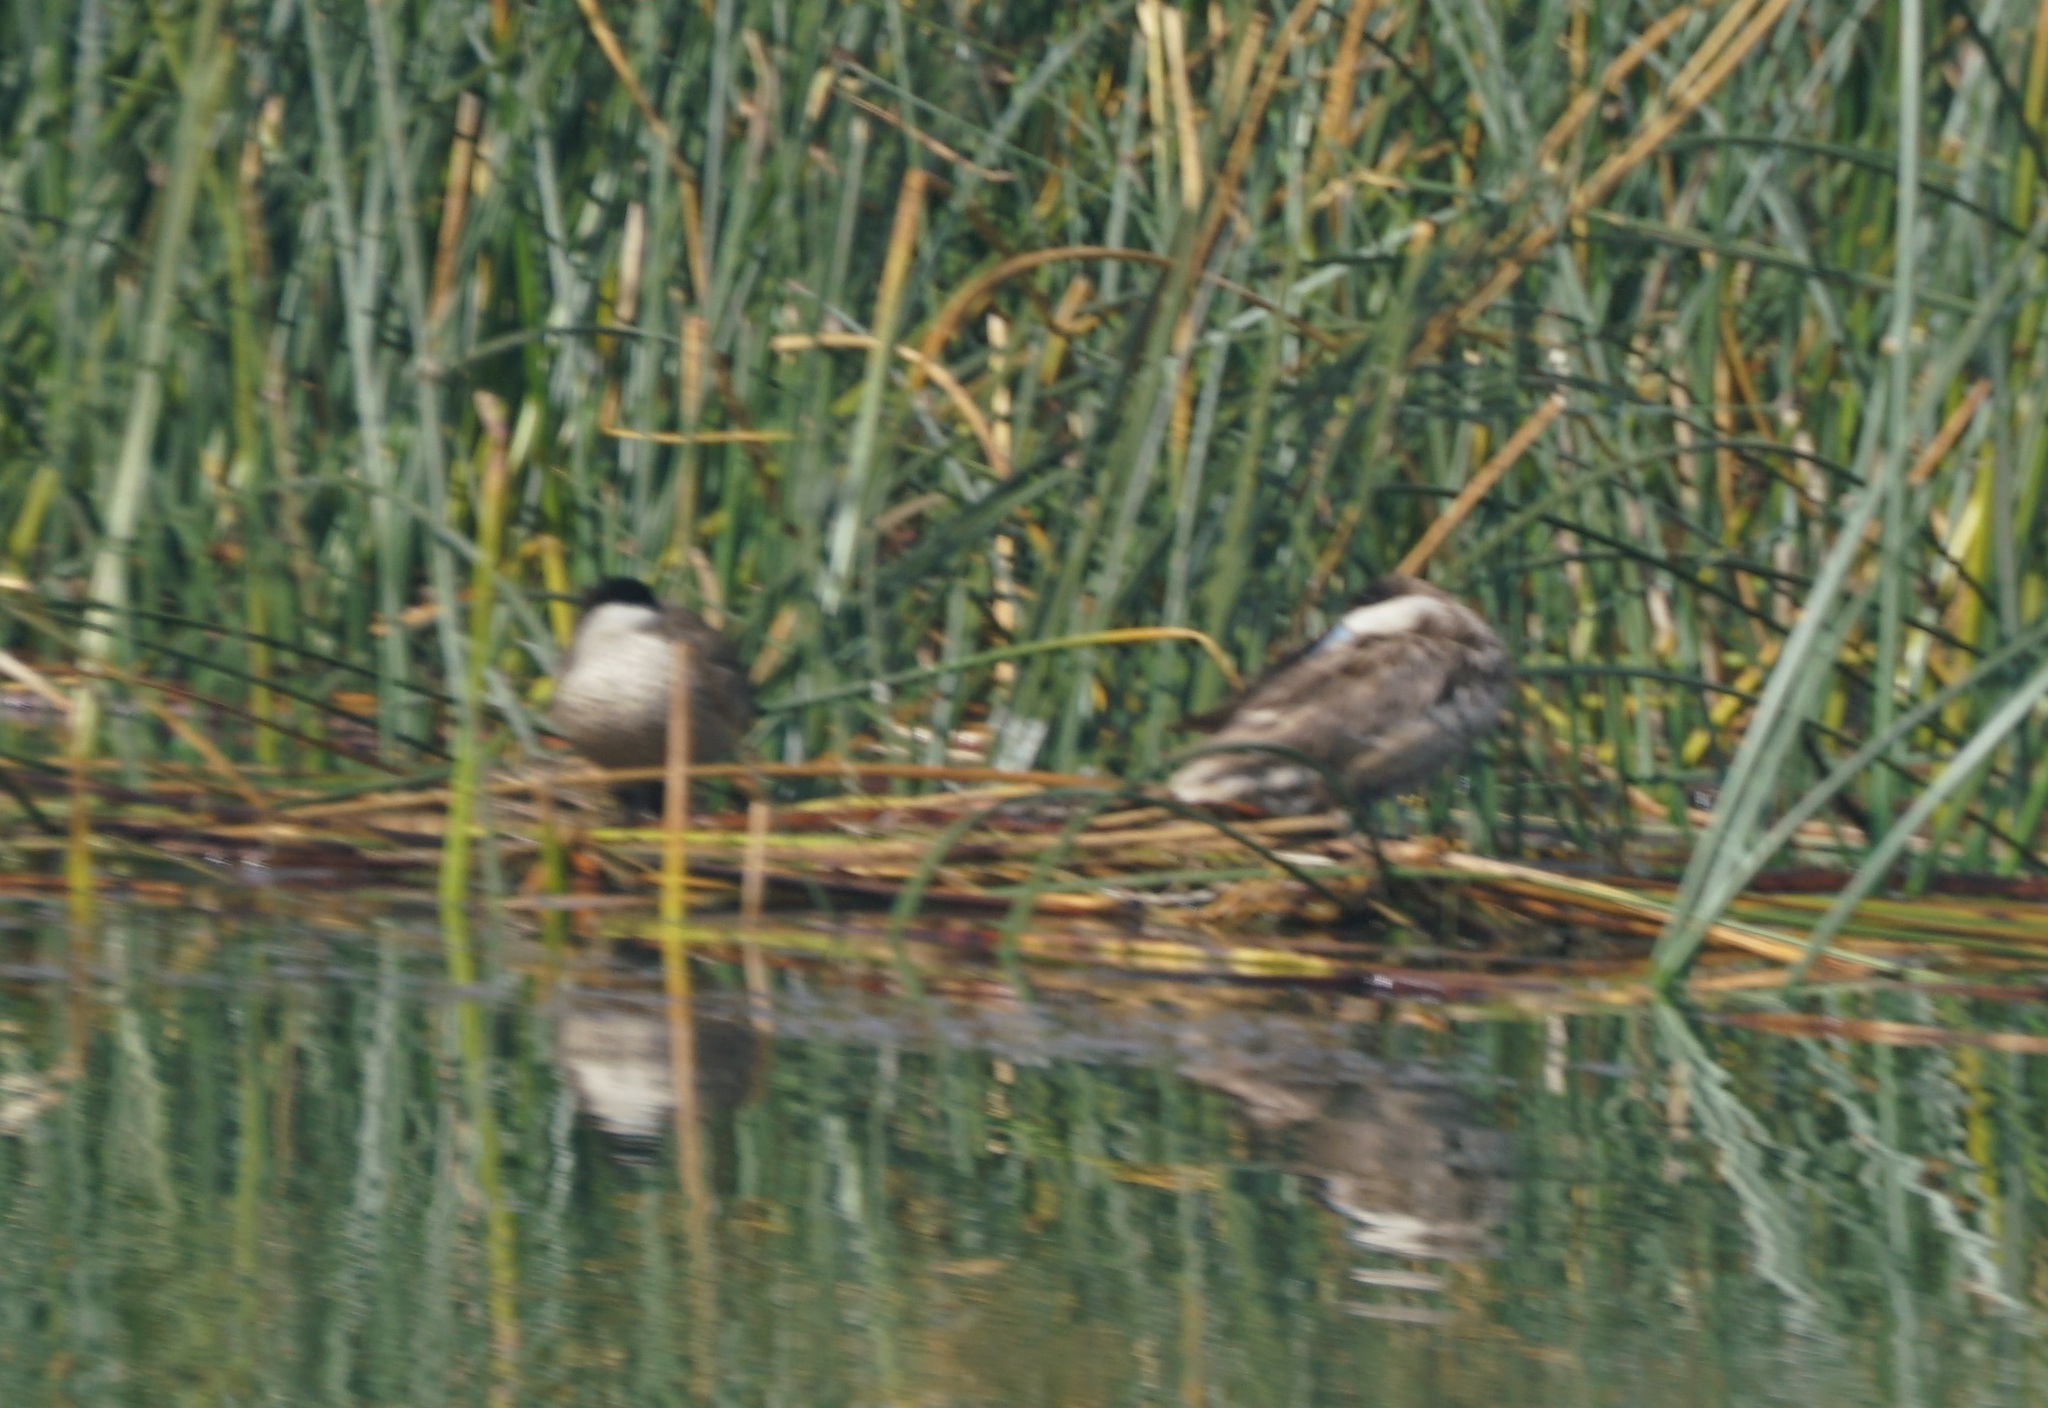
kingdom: Animalia
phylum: Chordata
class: Aves
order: Anseriformes
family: Anatidae
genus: Spatula
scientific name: Spatula puna
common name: Puna teal
